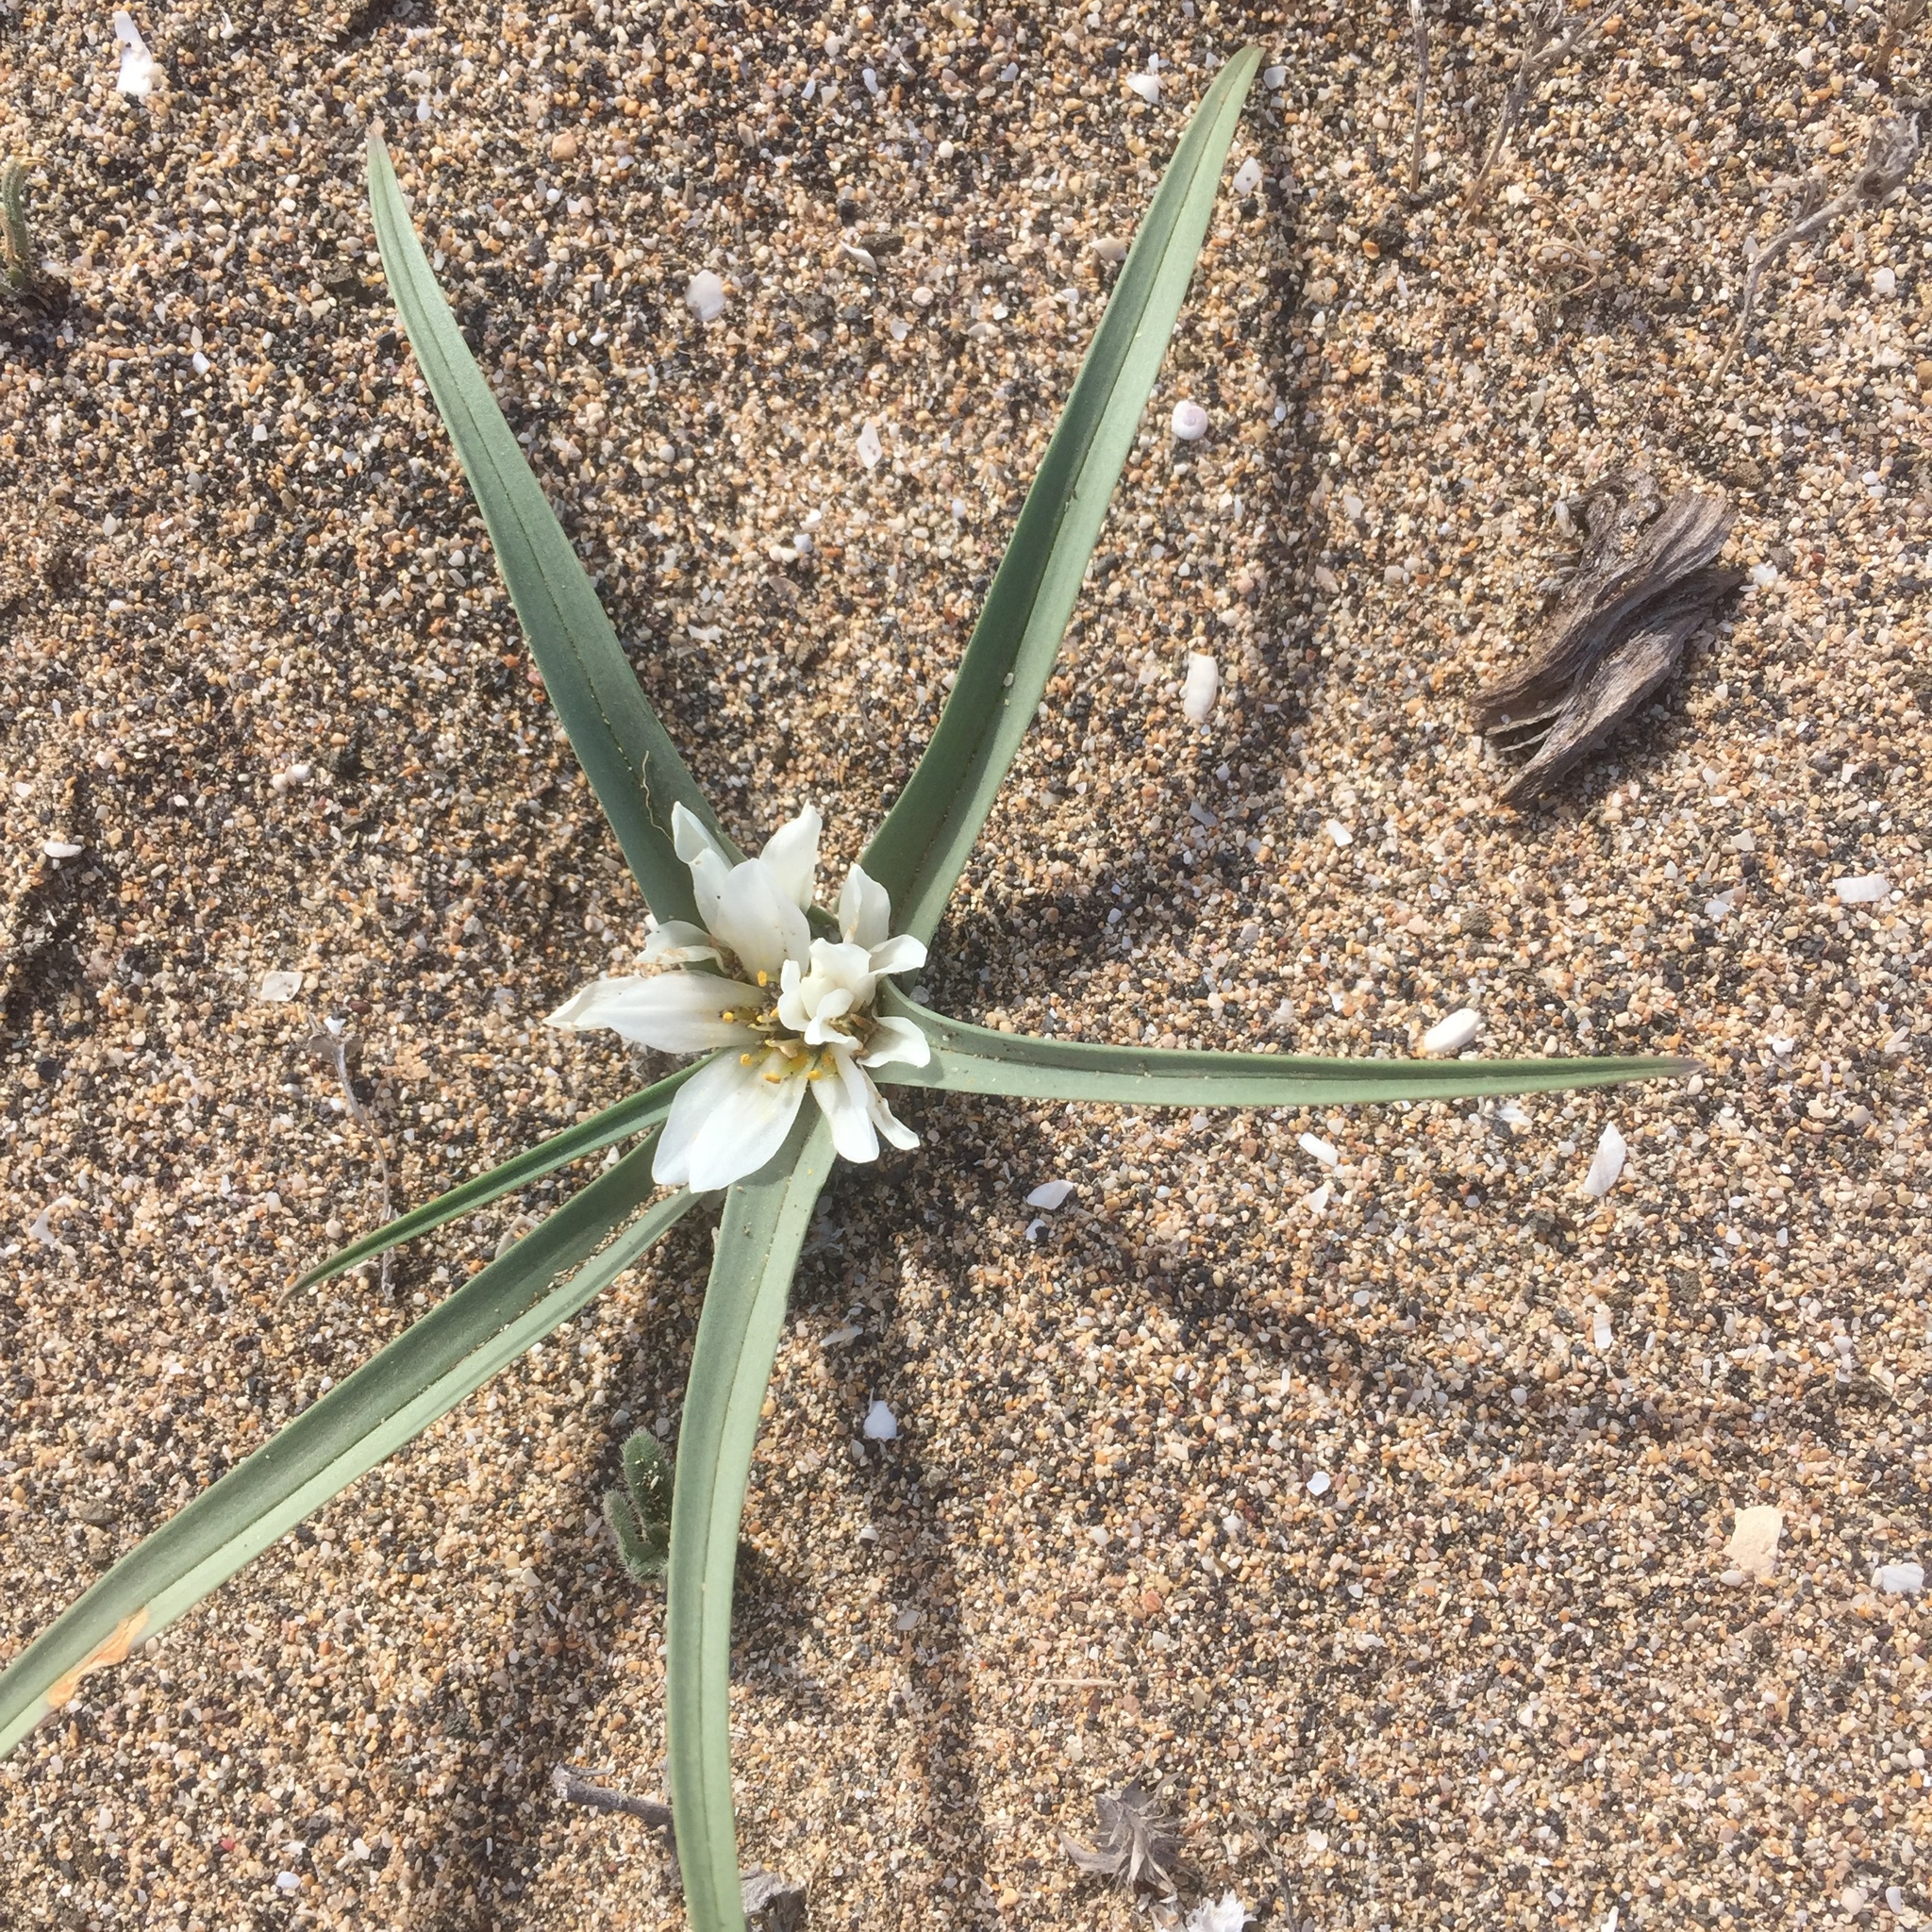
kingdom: Plantae
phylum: Tracheophyta
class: Liliopsida
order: Liliales
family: Colchicaceae
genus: Colchicum
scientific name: Colchicum psammophilum
